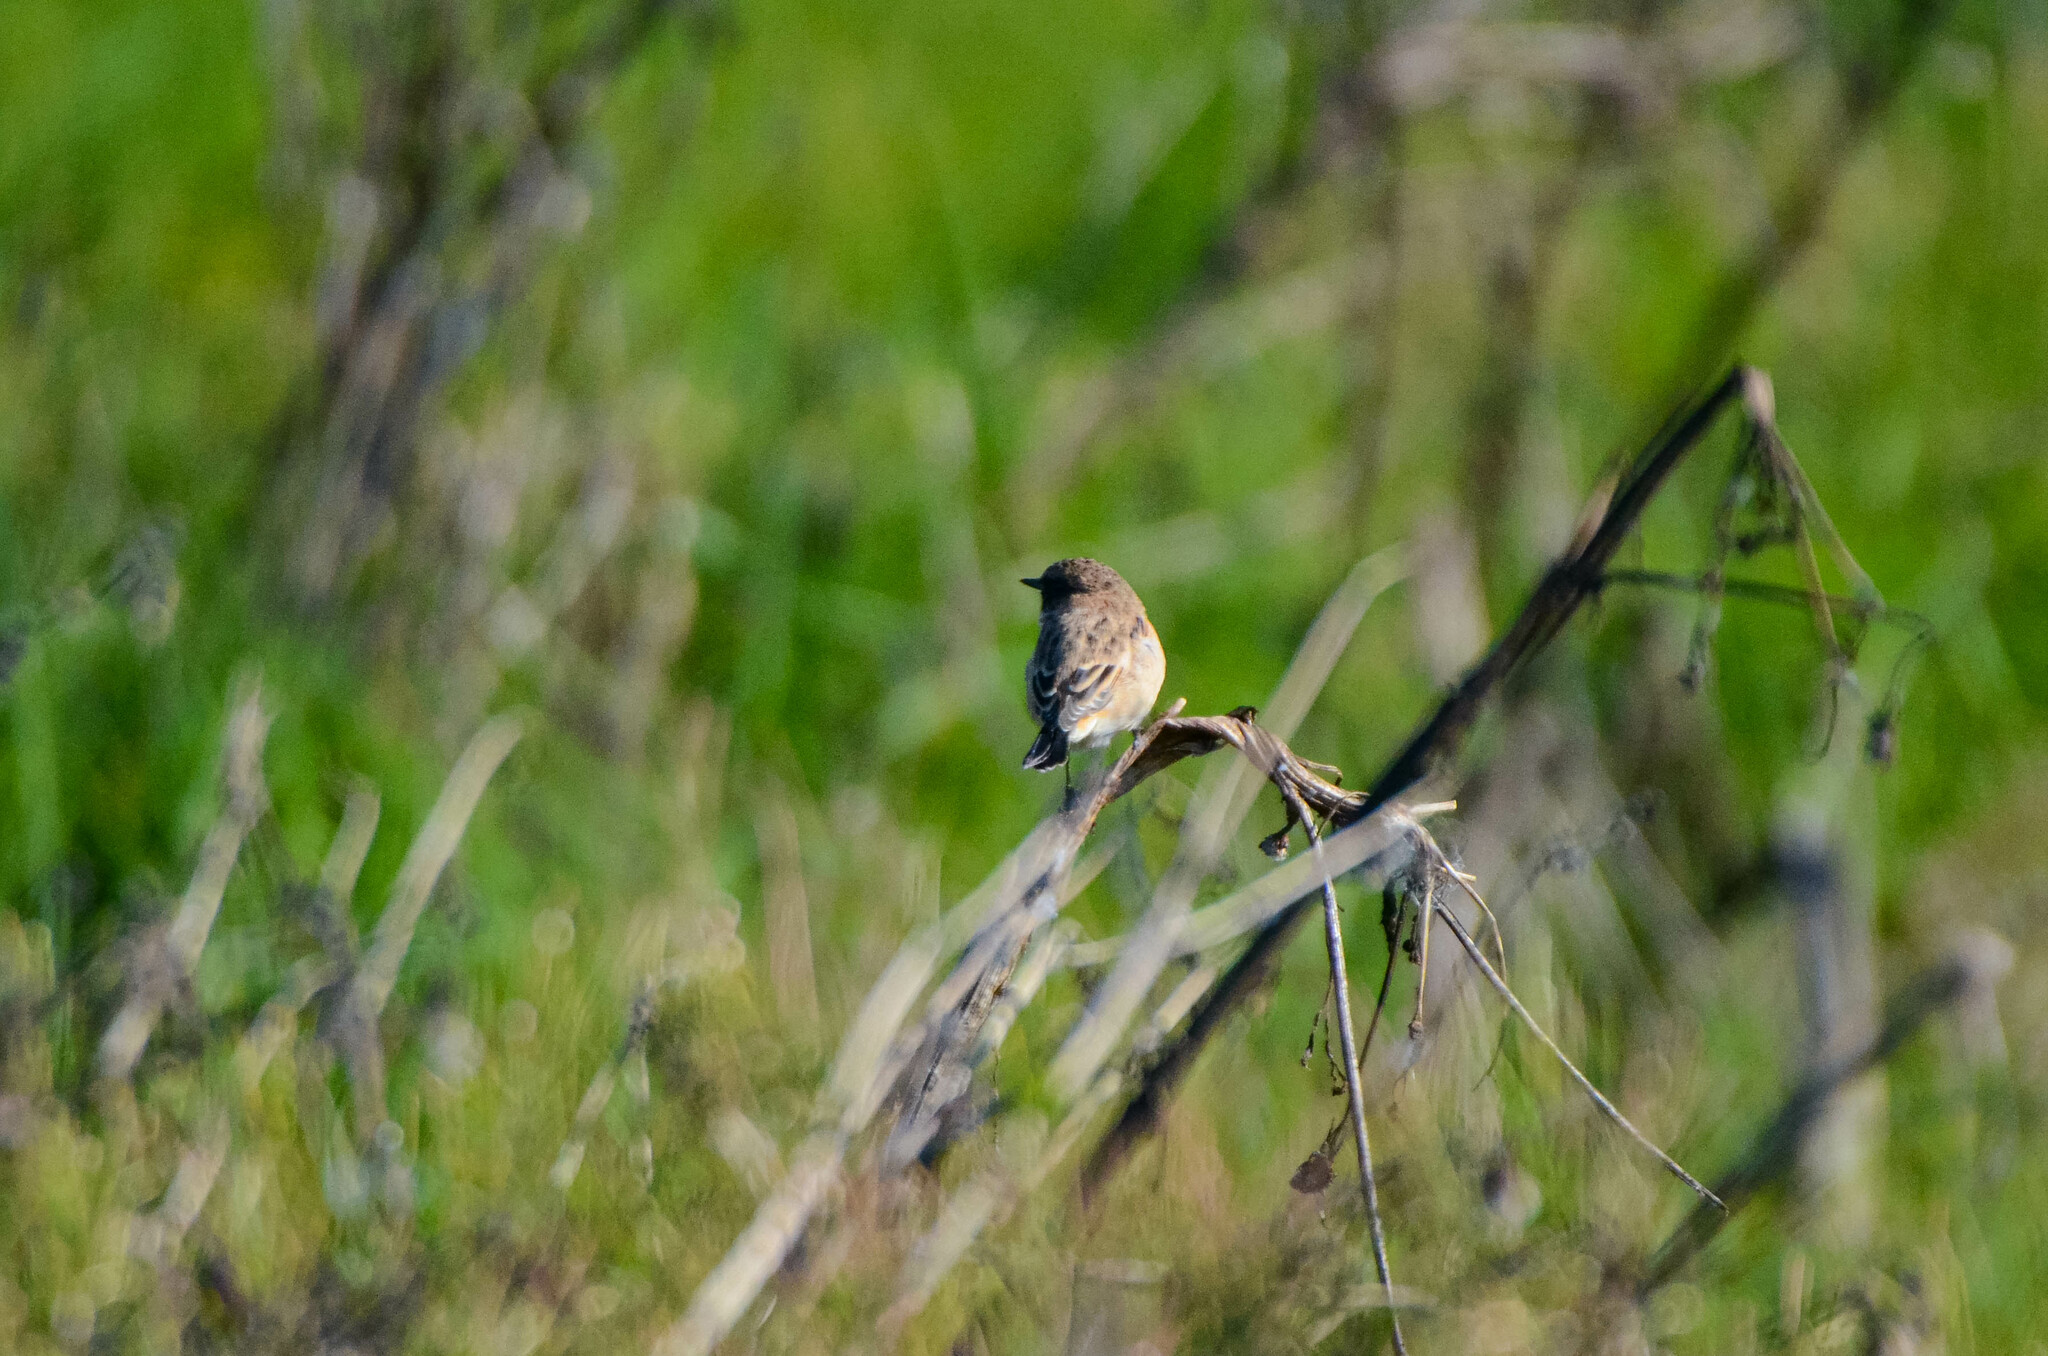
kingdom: Animalia
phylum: Chordata
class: Aves
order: Passeriformes
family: Muscicapidae
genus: Saxicola
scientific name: Saxicola maurus
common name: Siberian stonechat
